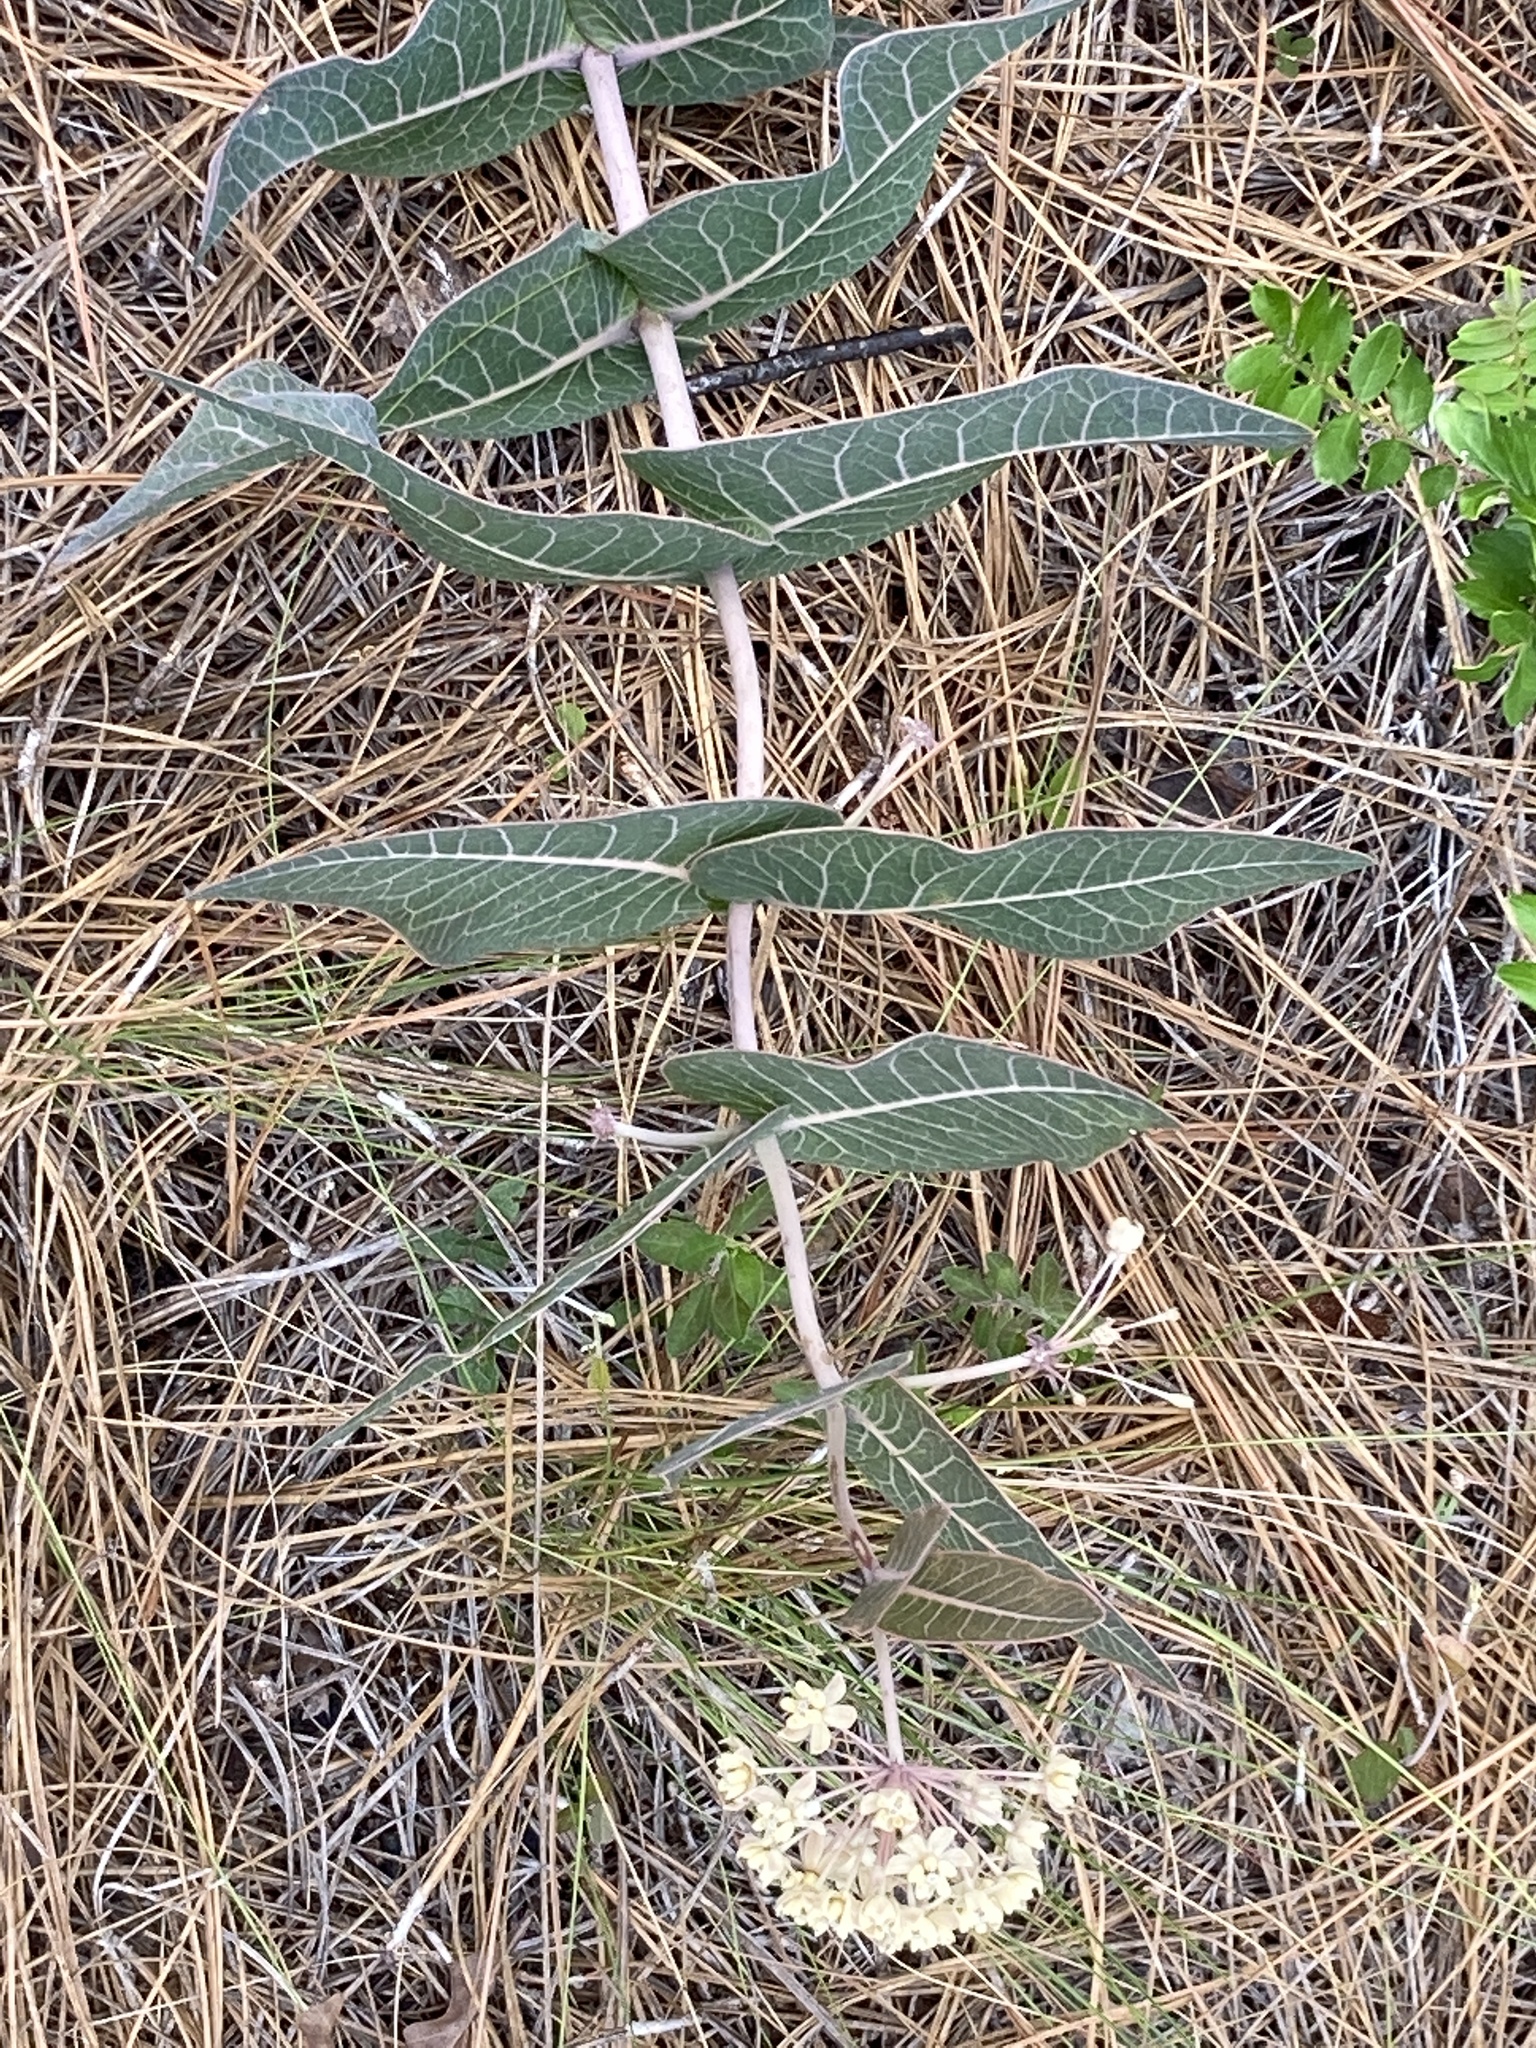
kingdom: Plantae
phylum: Tracheophyta
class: Magnoliopsida
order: Gentianales
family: Apocynaceae
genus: Asclepias
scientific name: Asclepias humistrata
